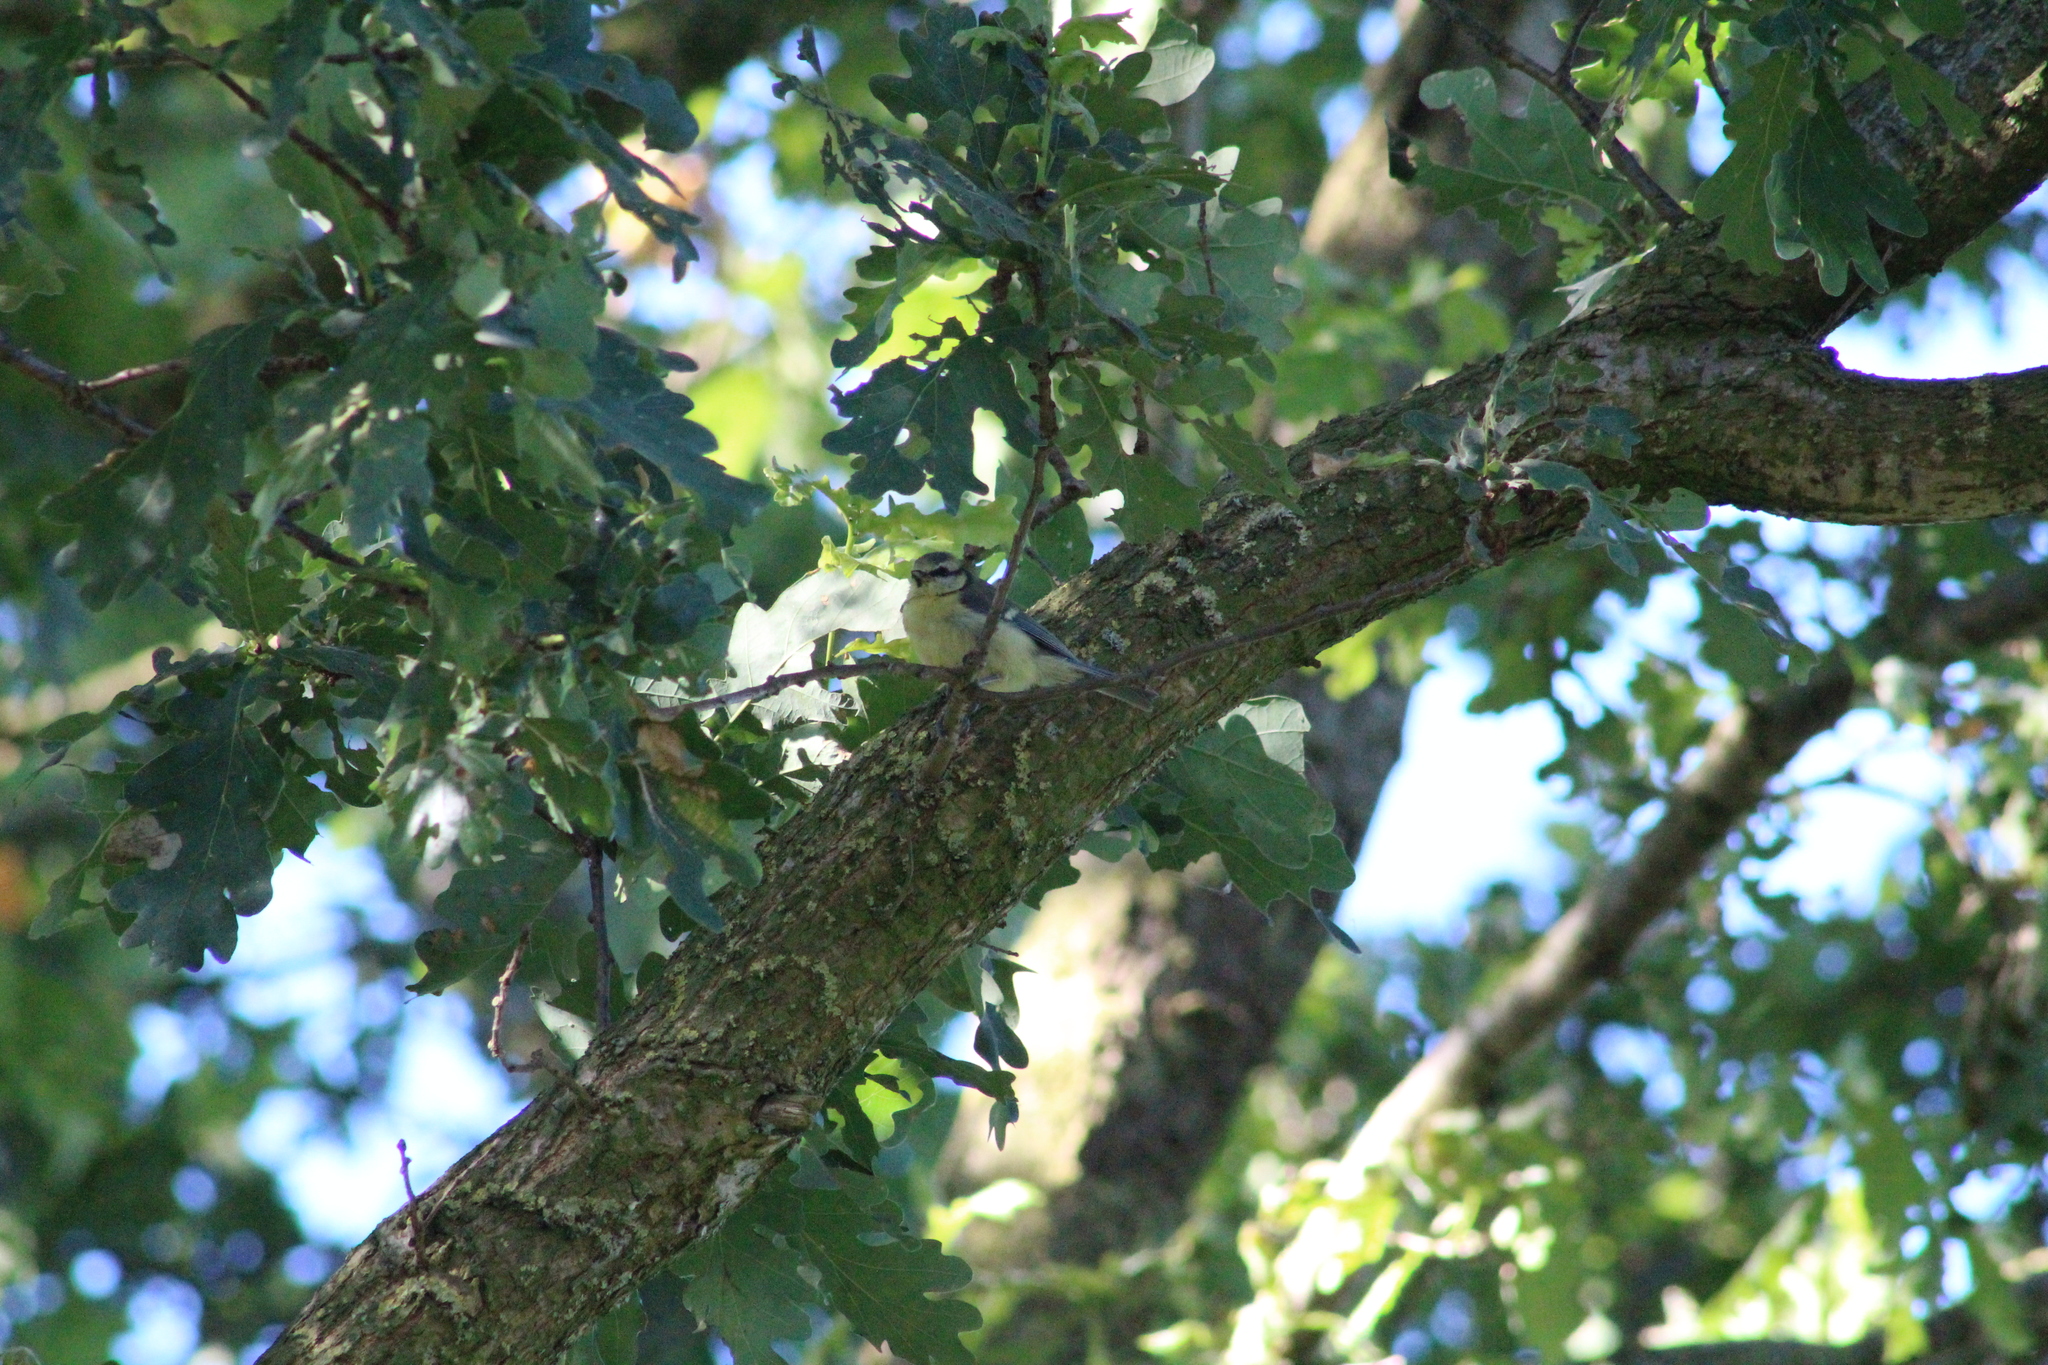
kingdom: Animalia
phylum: Chordata
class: Aves
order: Passeriformes
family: Paridae
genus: Cyanistes
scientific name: Cyanistes caeruleus
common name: Eurasian blue tit
